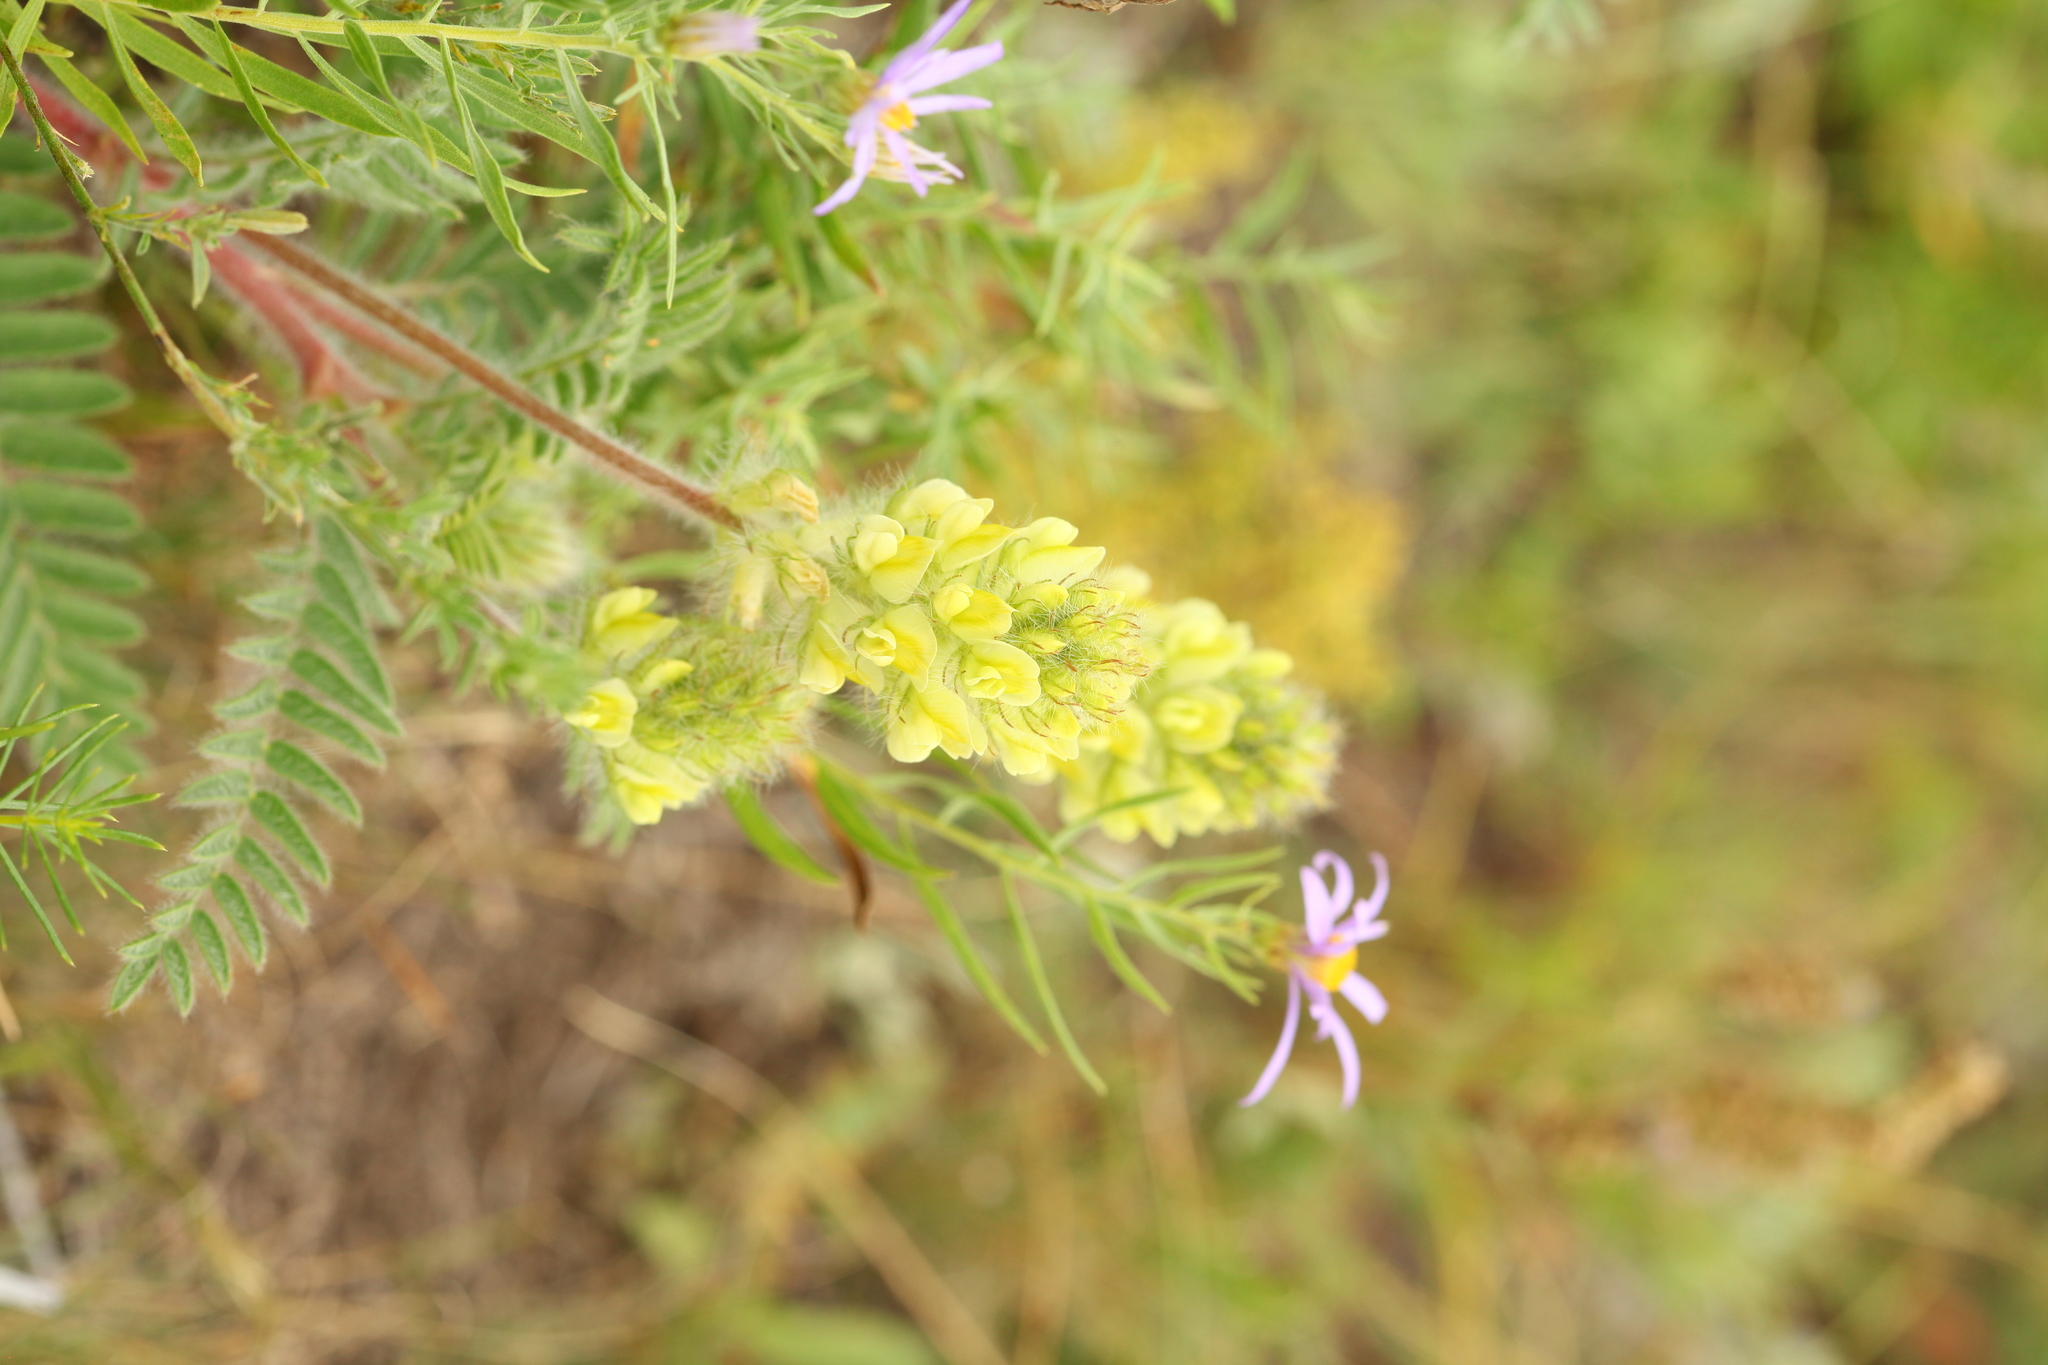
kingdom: Plantae
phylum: Tracheophyta
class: Magnoliopsida
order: Fabales
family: Fabaceae
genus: Oxytropis
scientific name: Oxytropis pilosa
